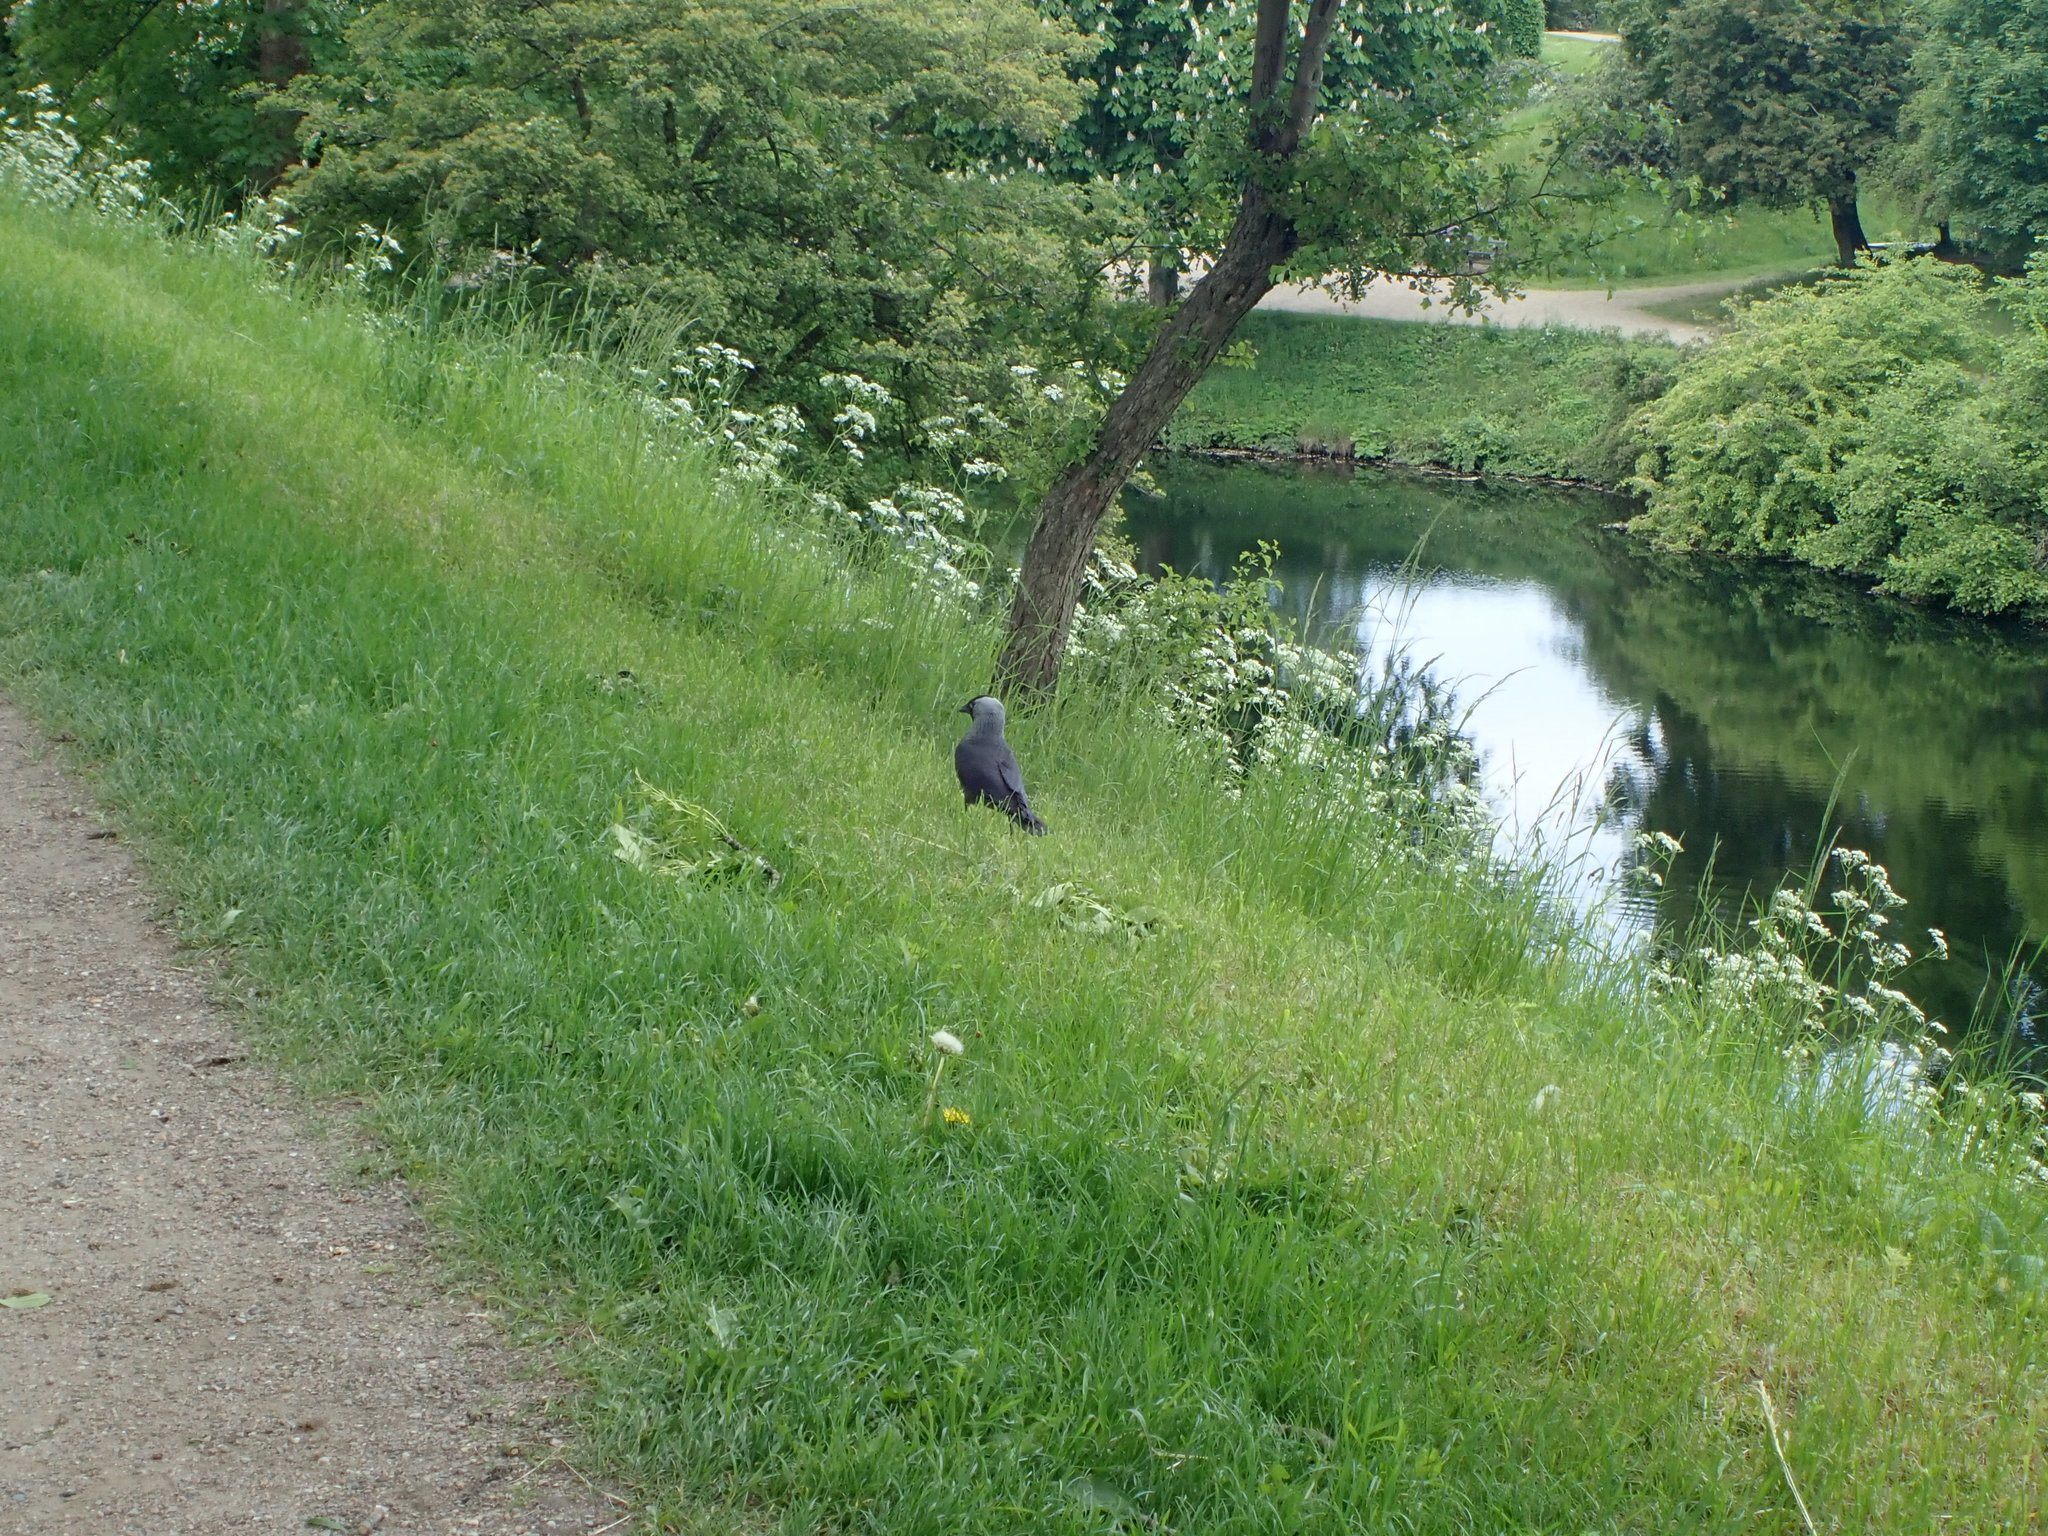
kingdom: Animalia
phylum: Chordata
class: Aves
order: Passeriformes
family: Corvidae
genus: Coloeus
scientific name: Coloeus monedula
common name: Western jackdaw
